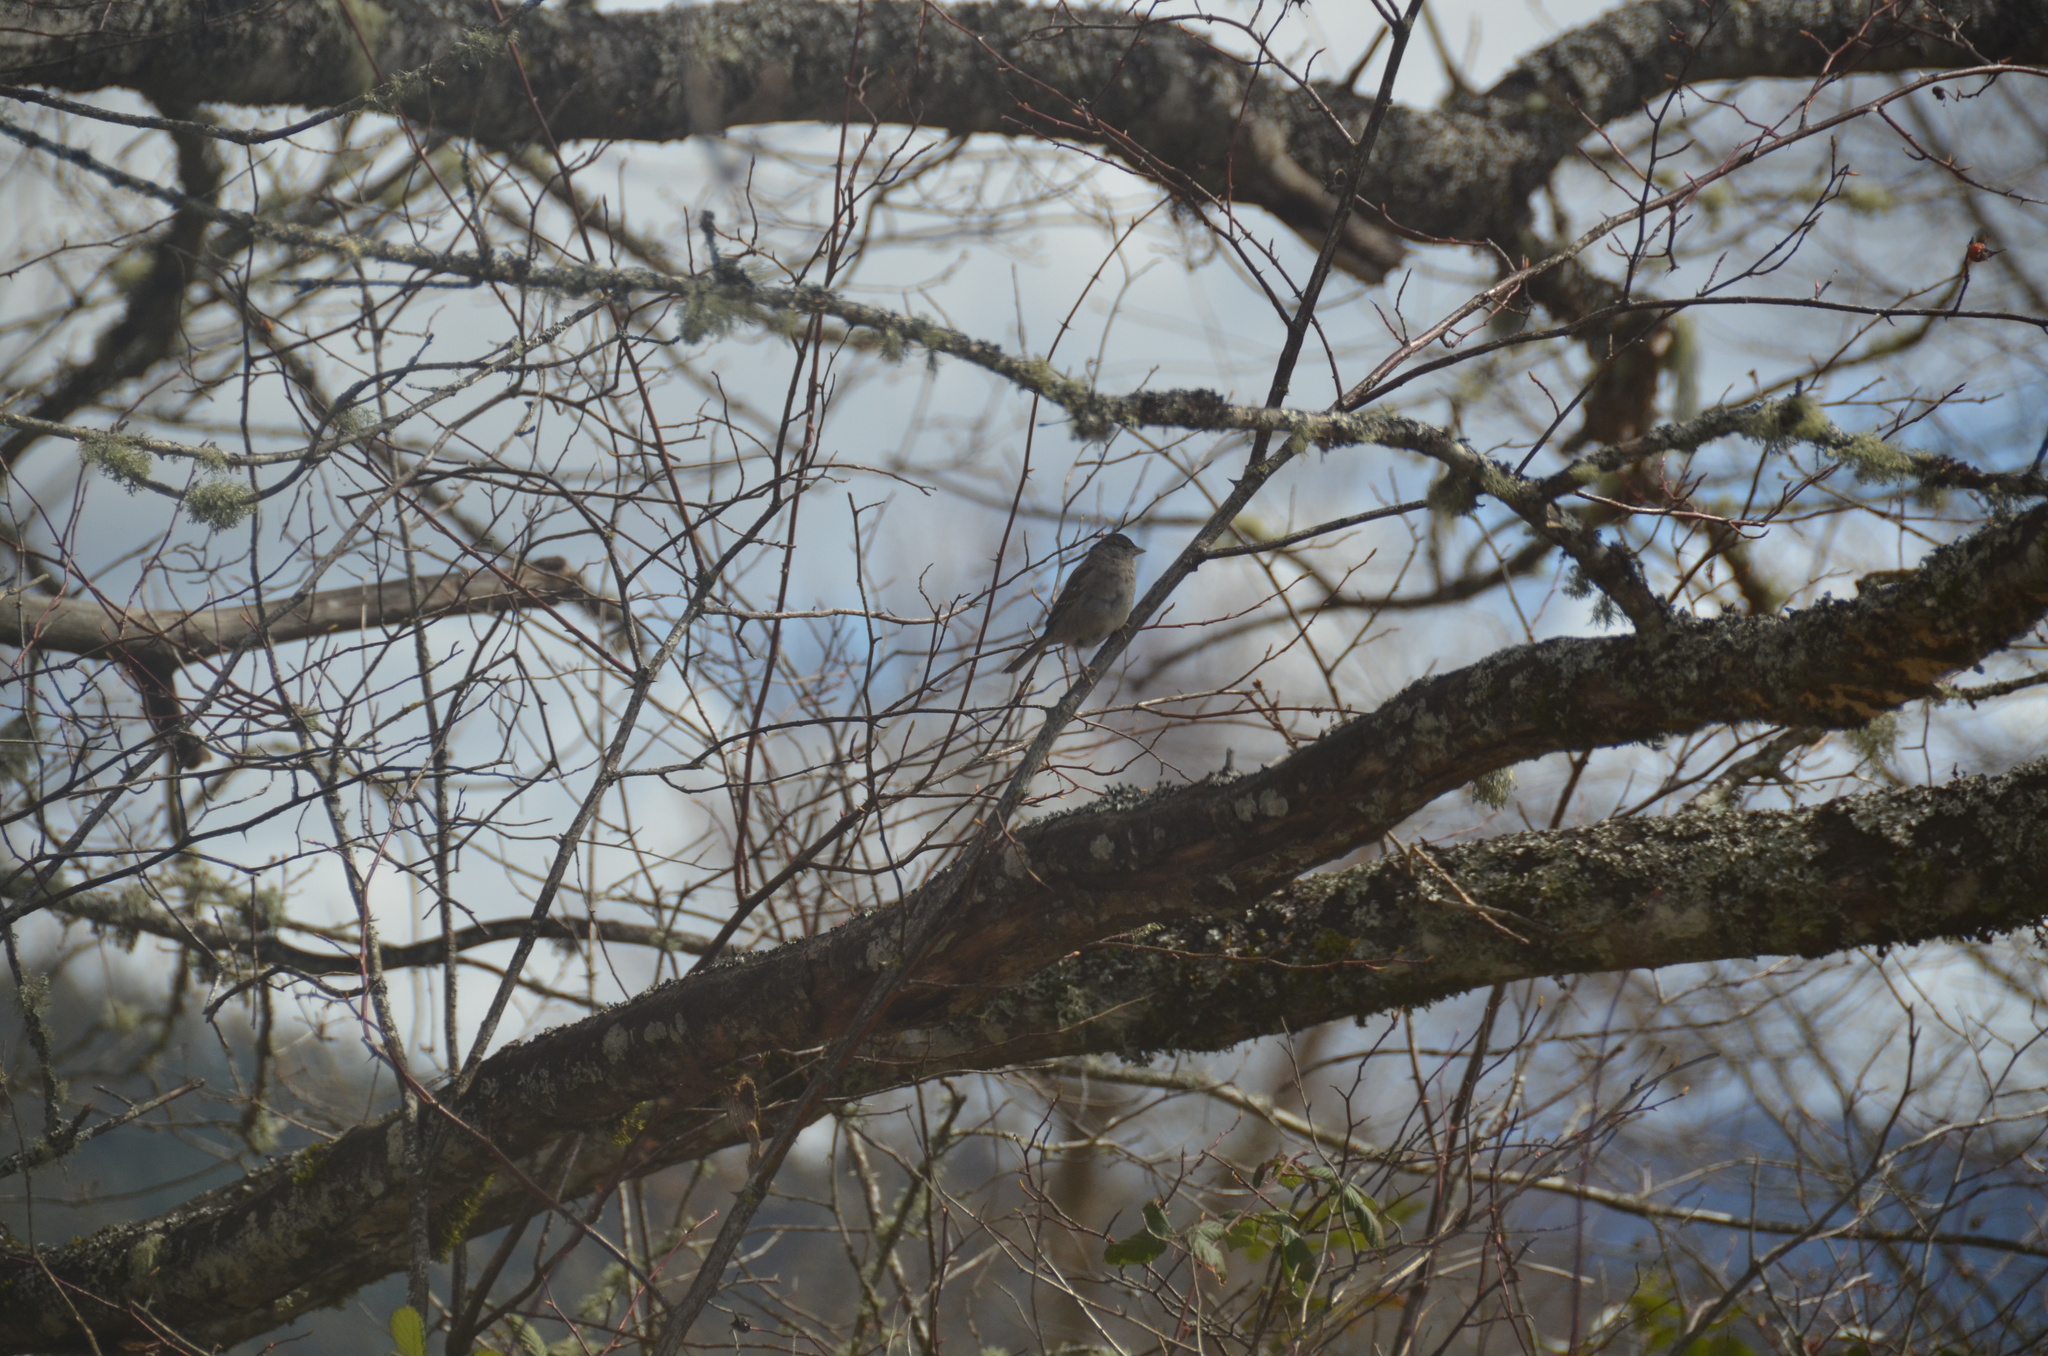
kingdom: Animalia
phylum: Chordata
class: Aves
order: Passeriformes
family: Passerellidae
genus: Zonotrichia
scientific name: Zonotrichia atricapilla
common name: Golden-crowned sparrow
